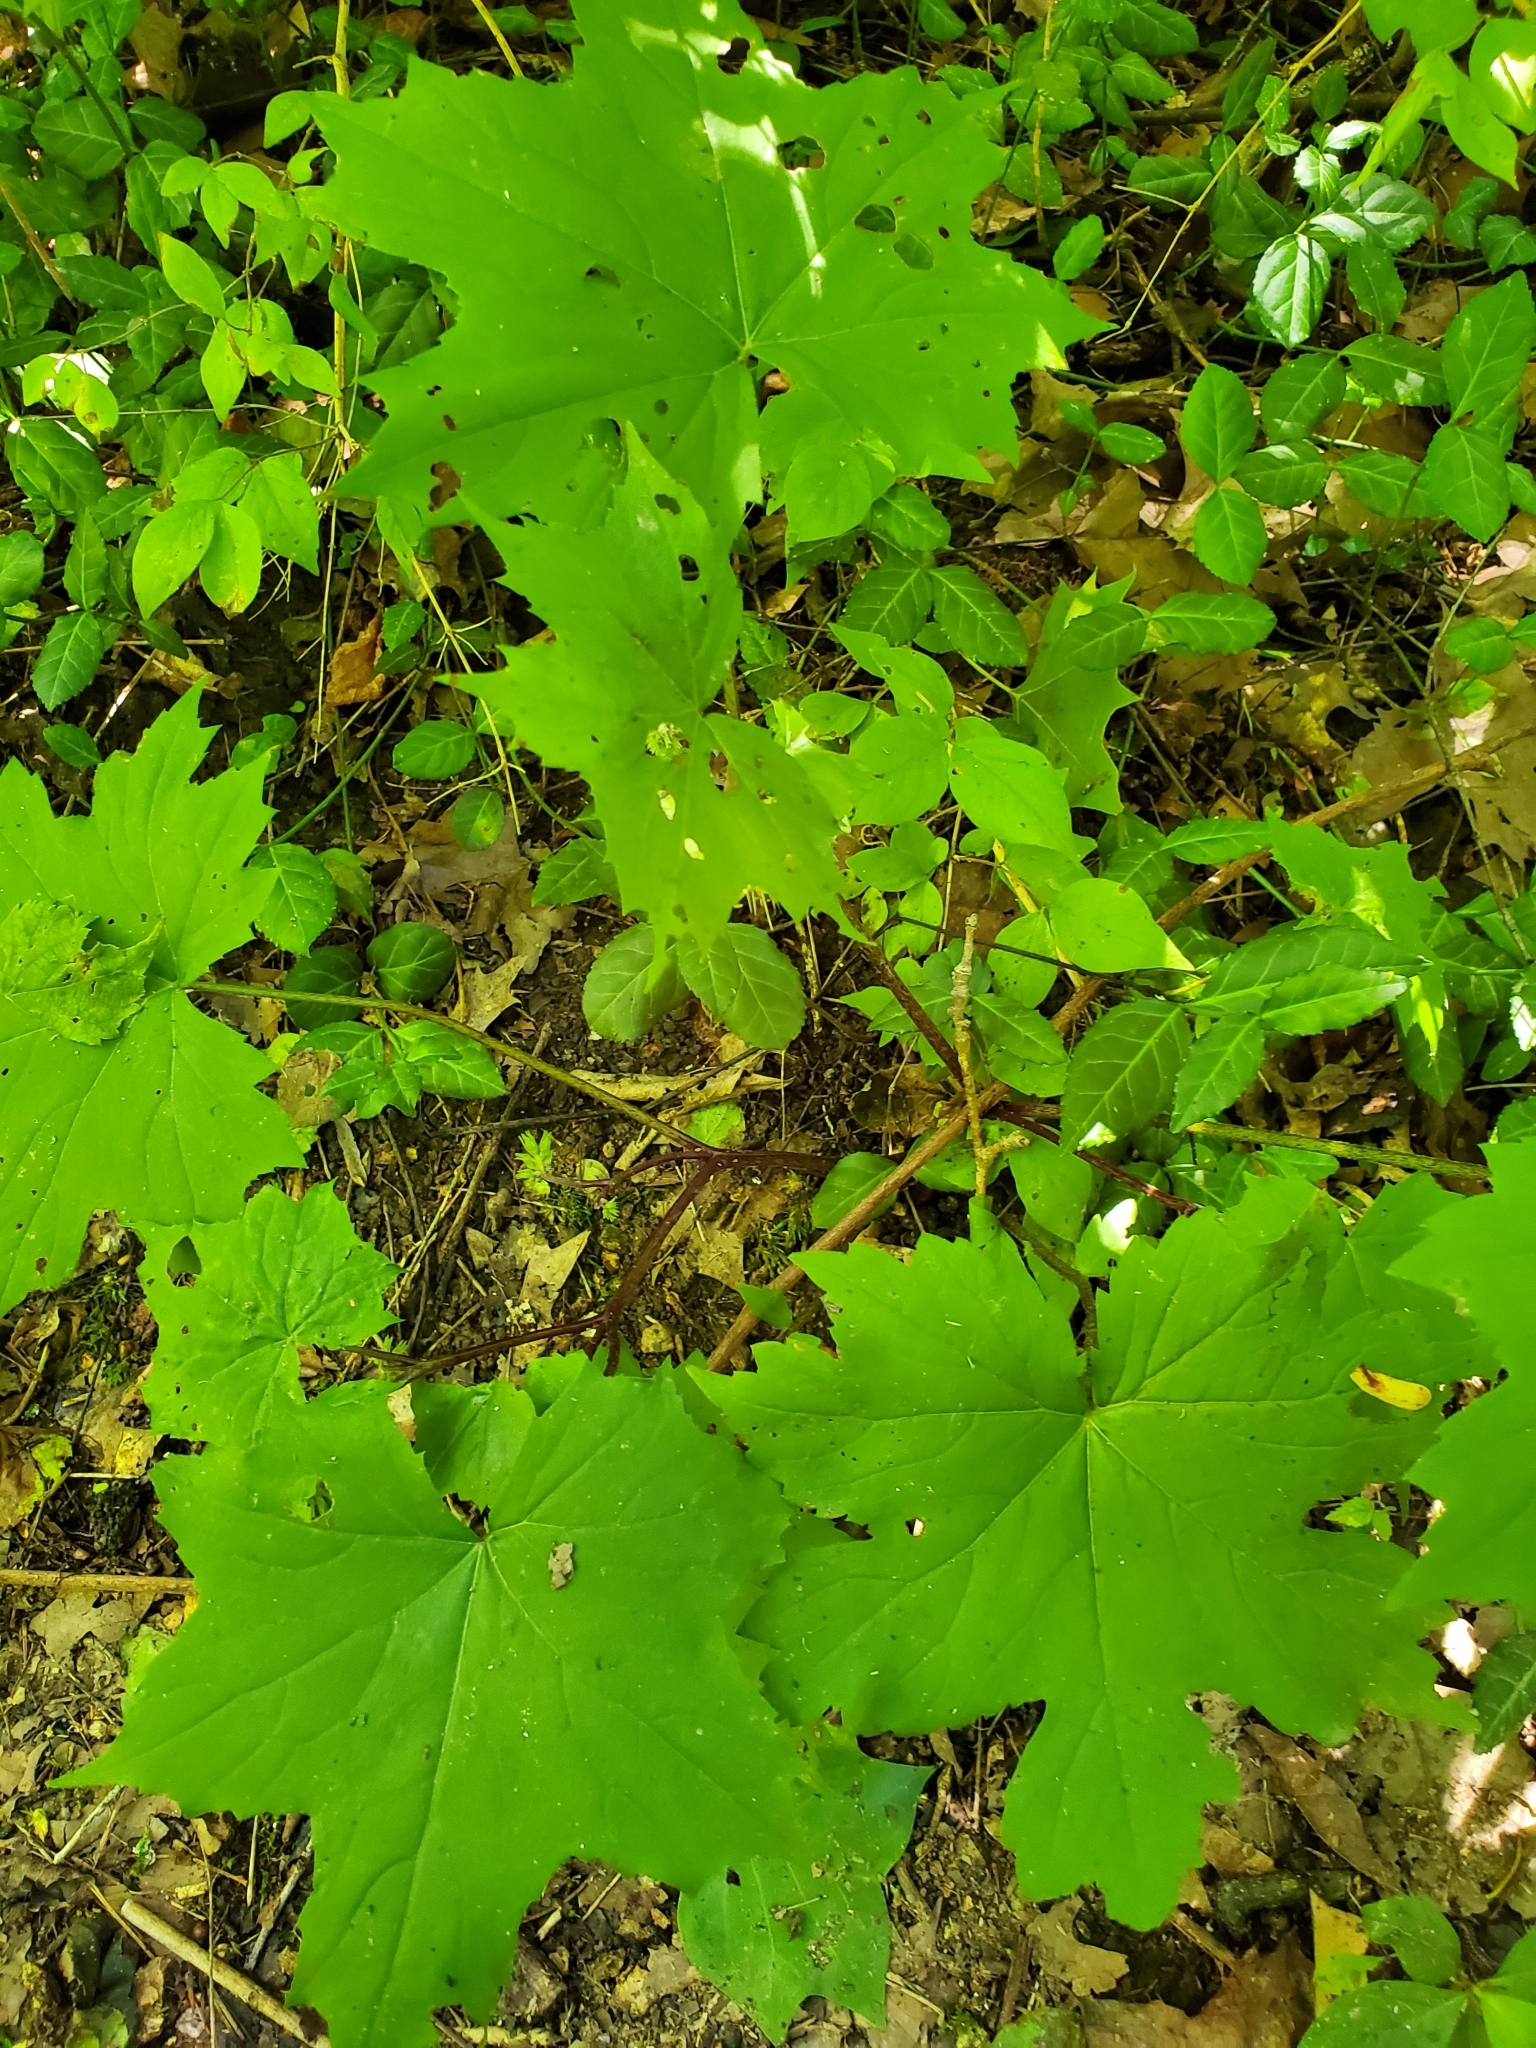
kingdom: Plantae
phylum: Tracheophyta
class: Magnoliopsida
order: Boraginales
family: Hydrophyllaceae
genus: Hydrophyllum
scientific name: Hydrophyllum canadense
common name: Canada waterleaf
